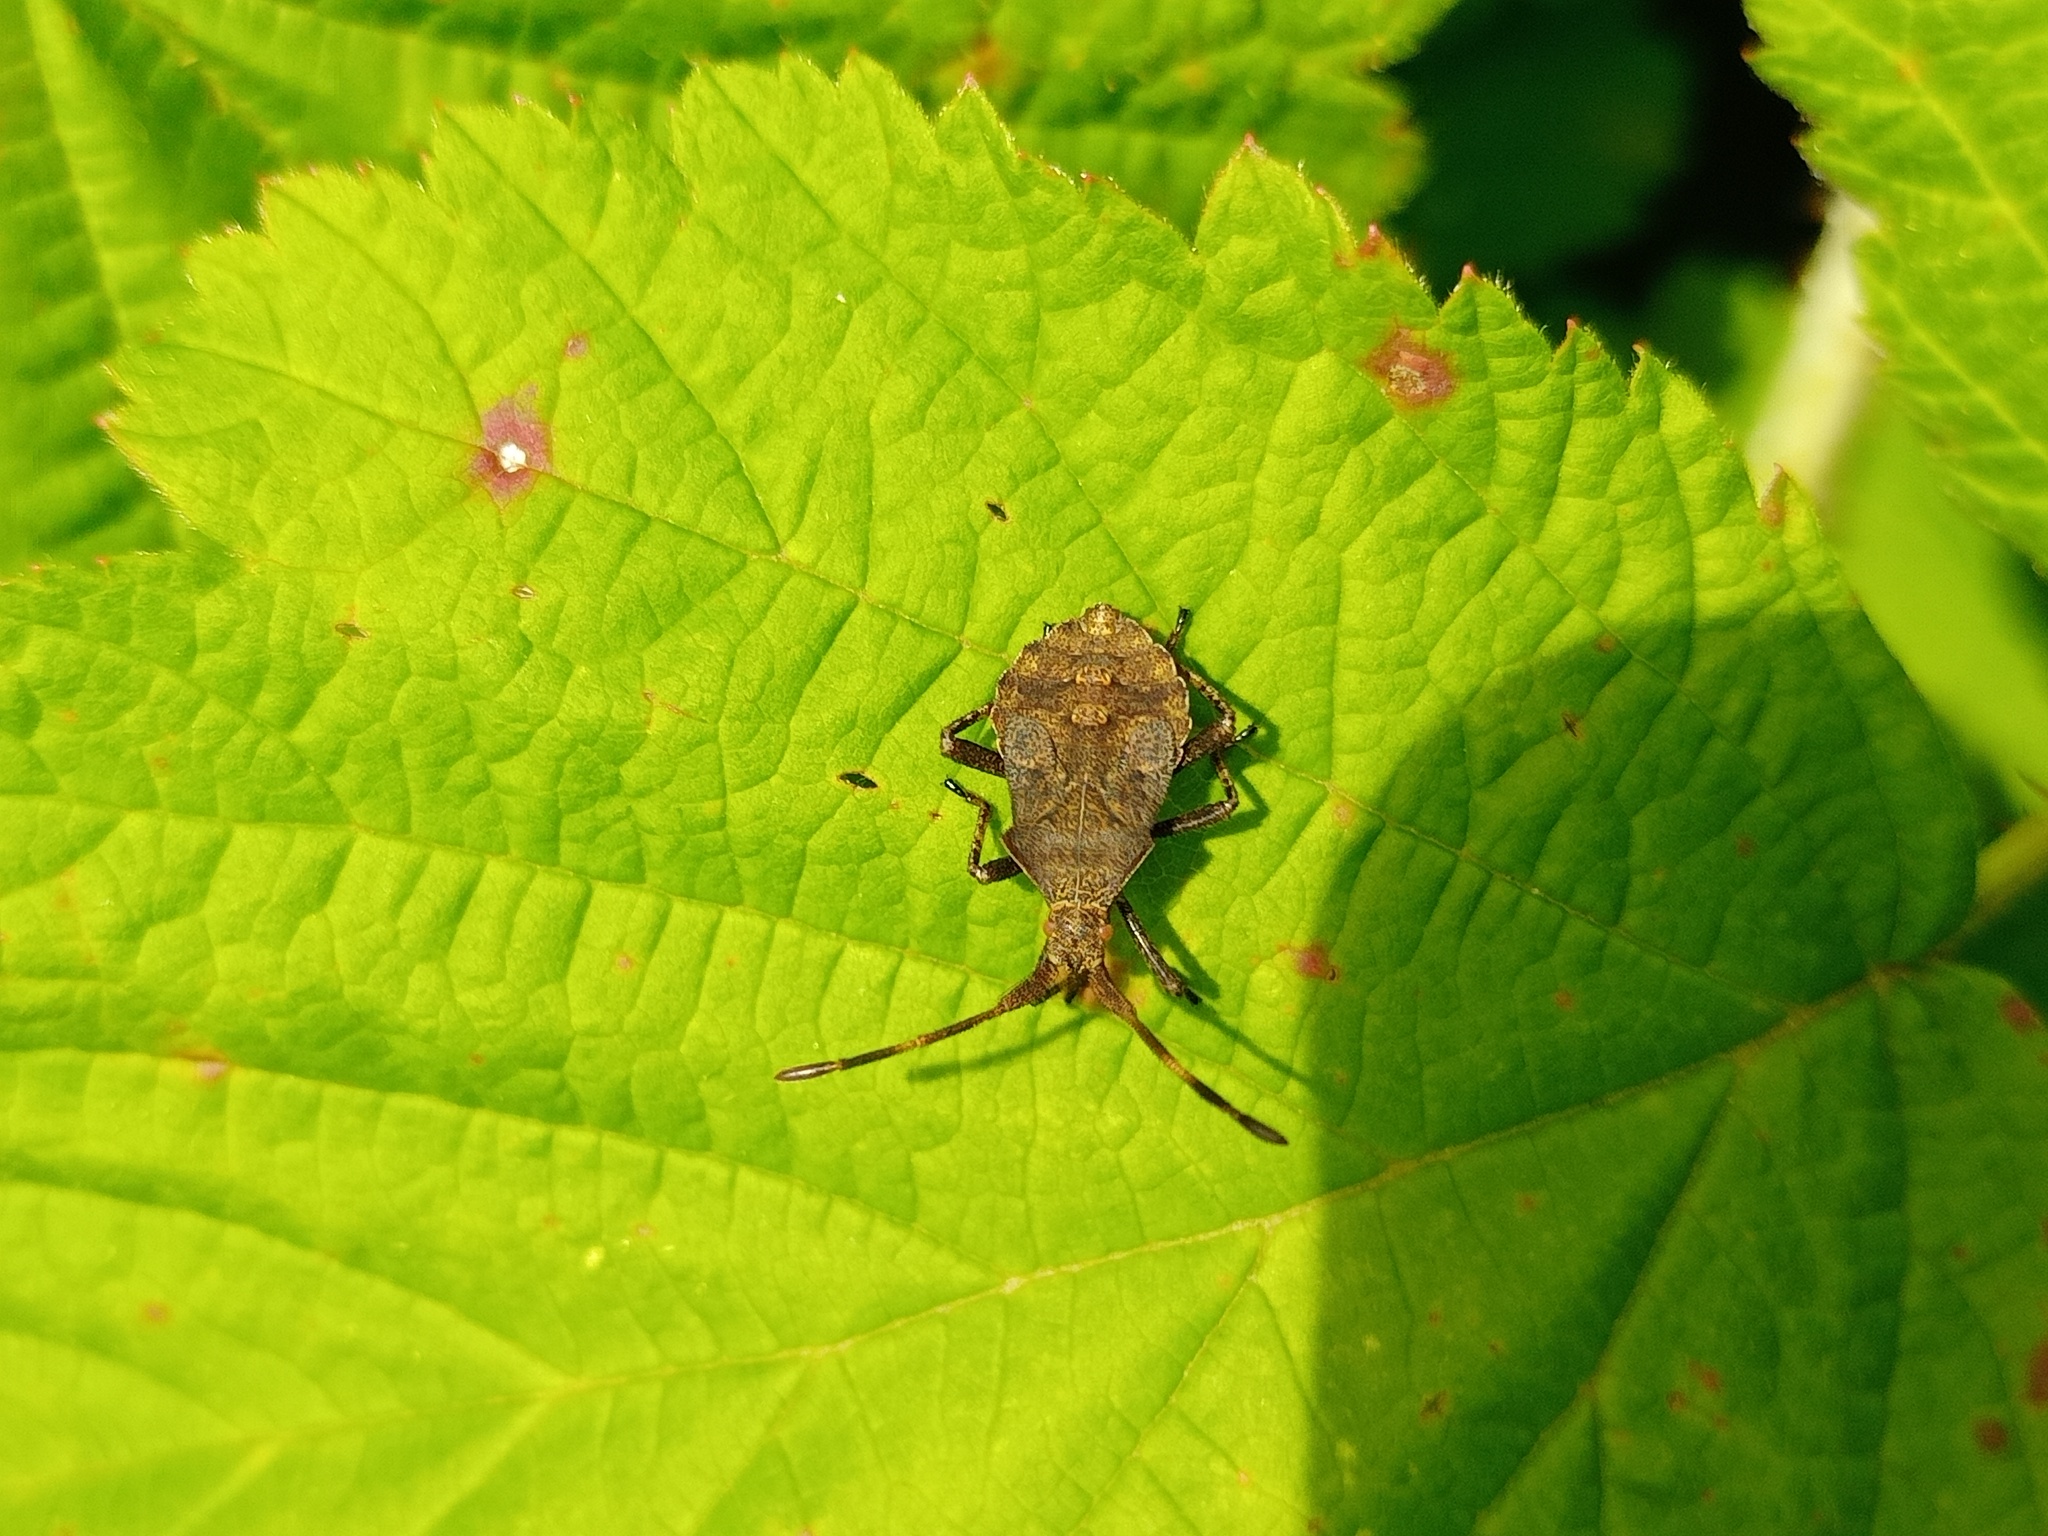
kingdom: Animalia
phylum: Arthropoda
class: Insecta
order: Hemiptera
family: Coreidae
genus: Coreus
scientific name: Coreus marginatus
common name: Dock bug
